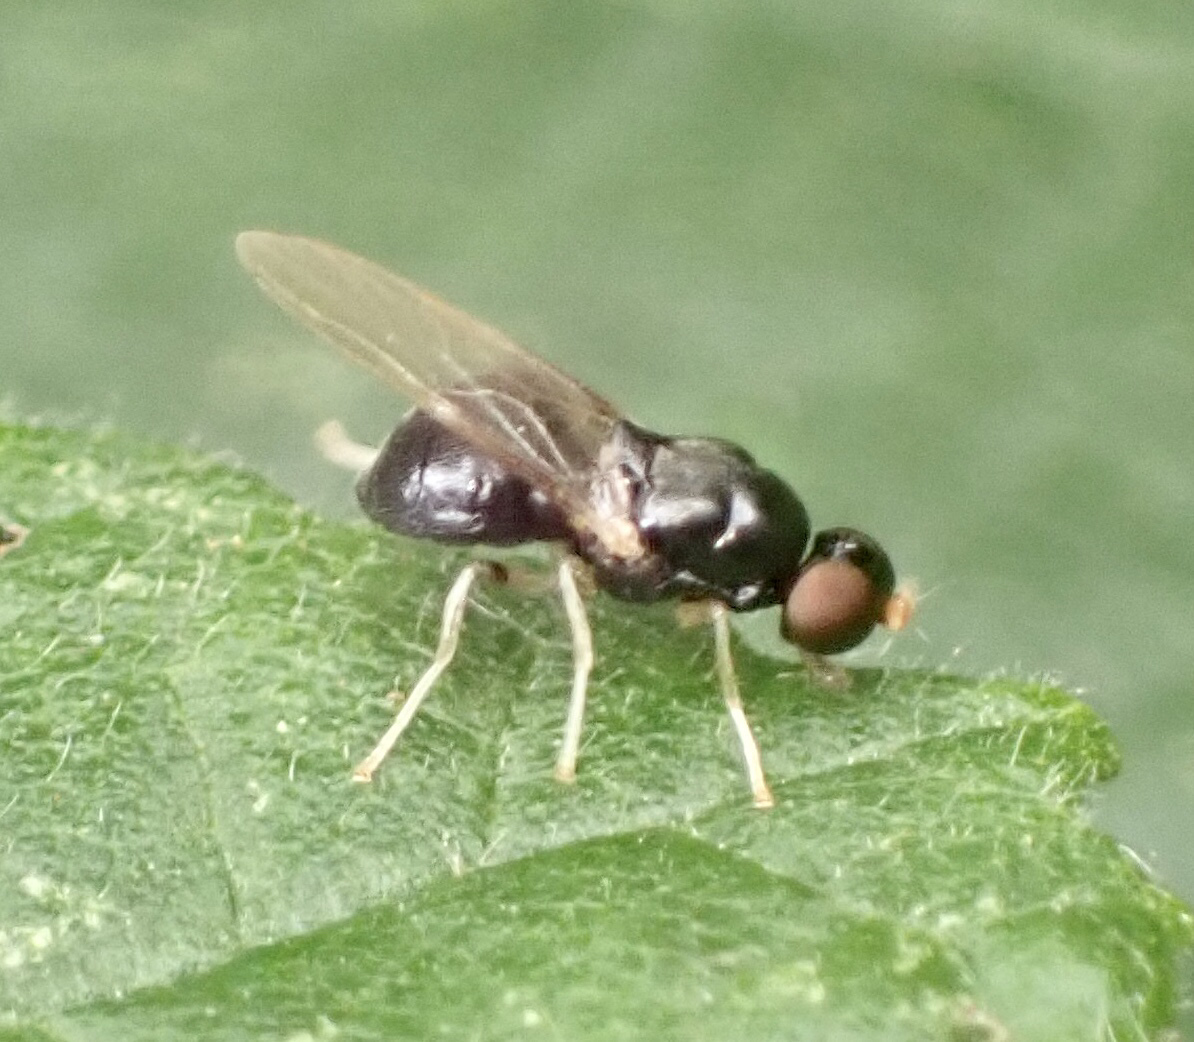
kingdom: Animalia
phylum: Arthropoda
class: Insecta
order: Diptera
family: Stratiomyidae
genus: Pachygaster
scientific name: Pachygaster leachii
